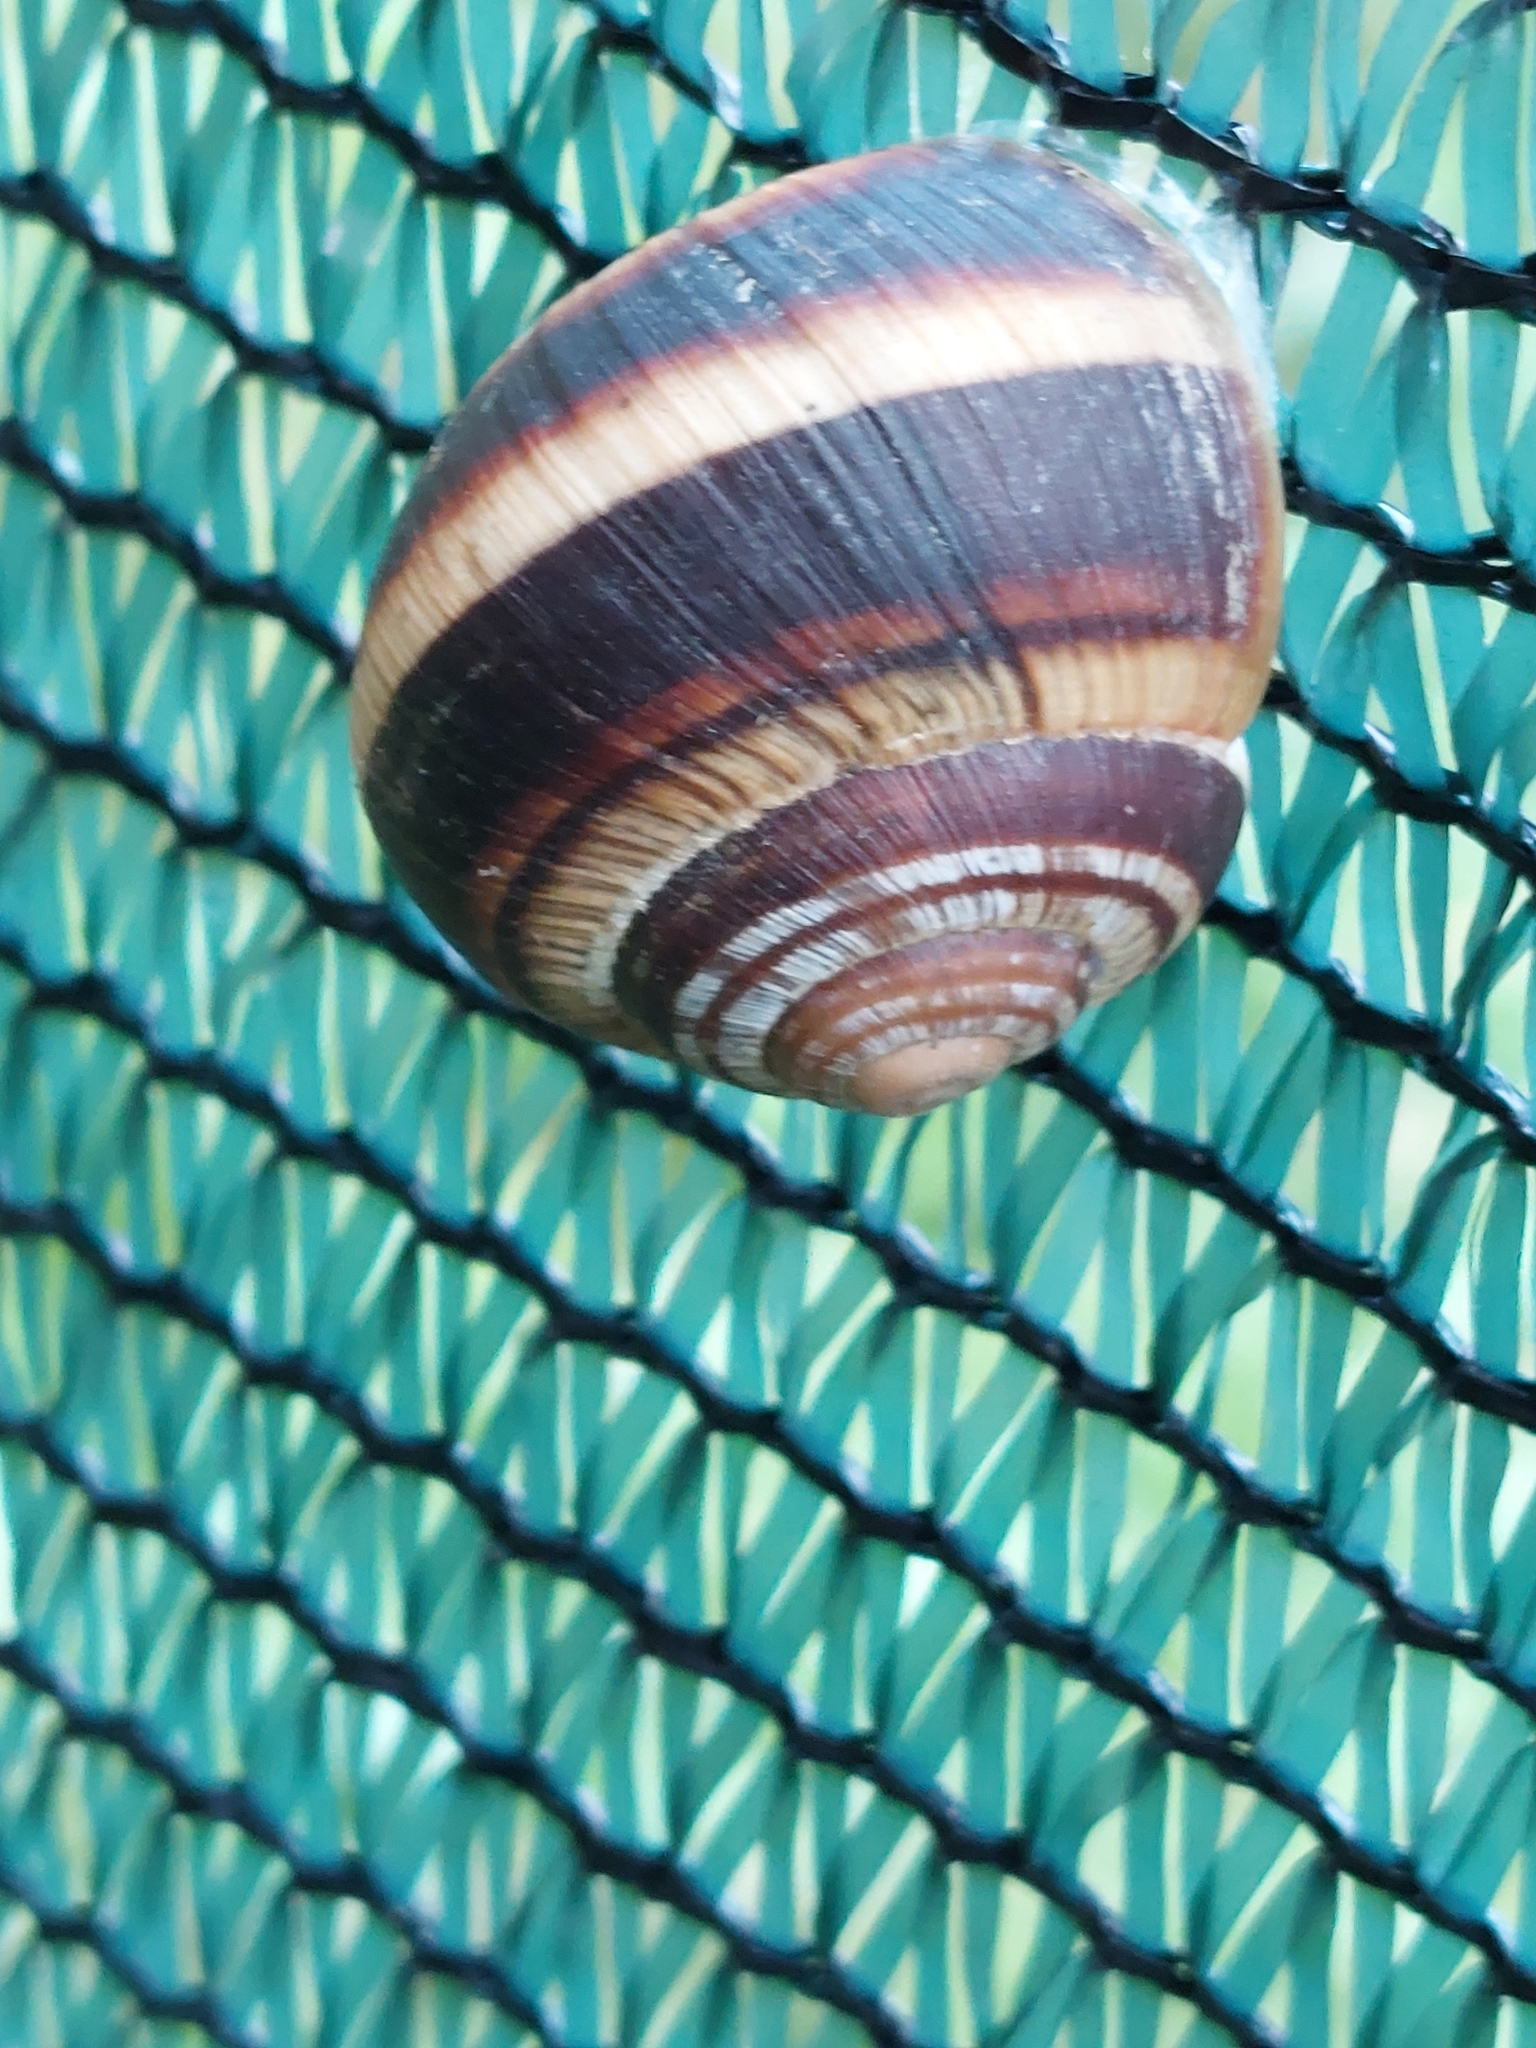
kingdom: Animalia
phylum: Mollusca
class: Gastropoda
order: Stylommatophora
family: Helicidae
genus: Helix
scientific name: Helix lucorum
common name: Turkish snail
